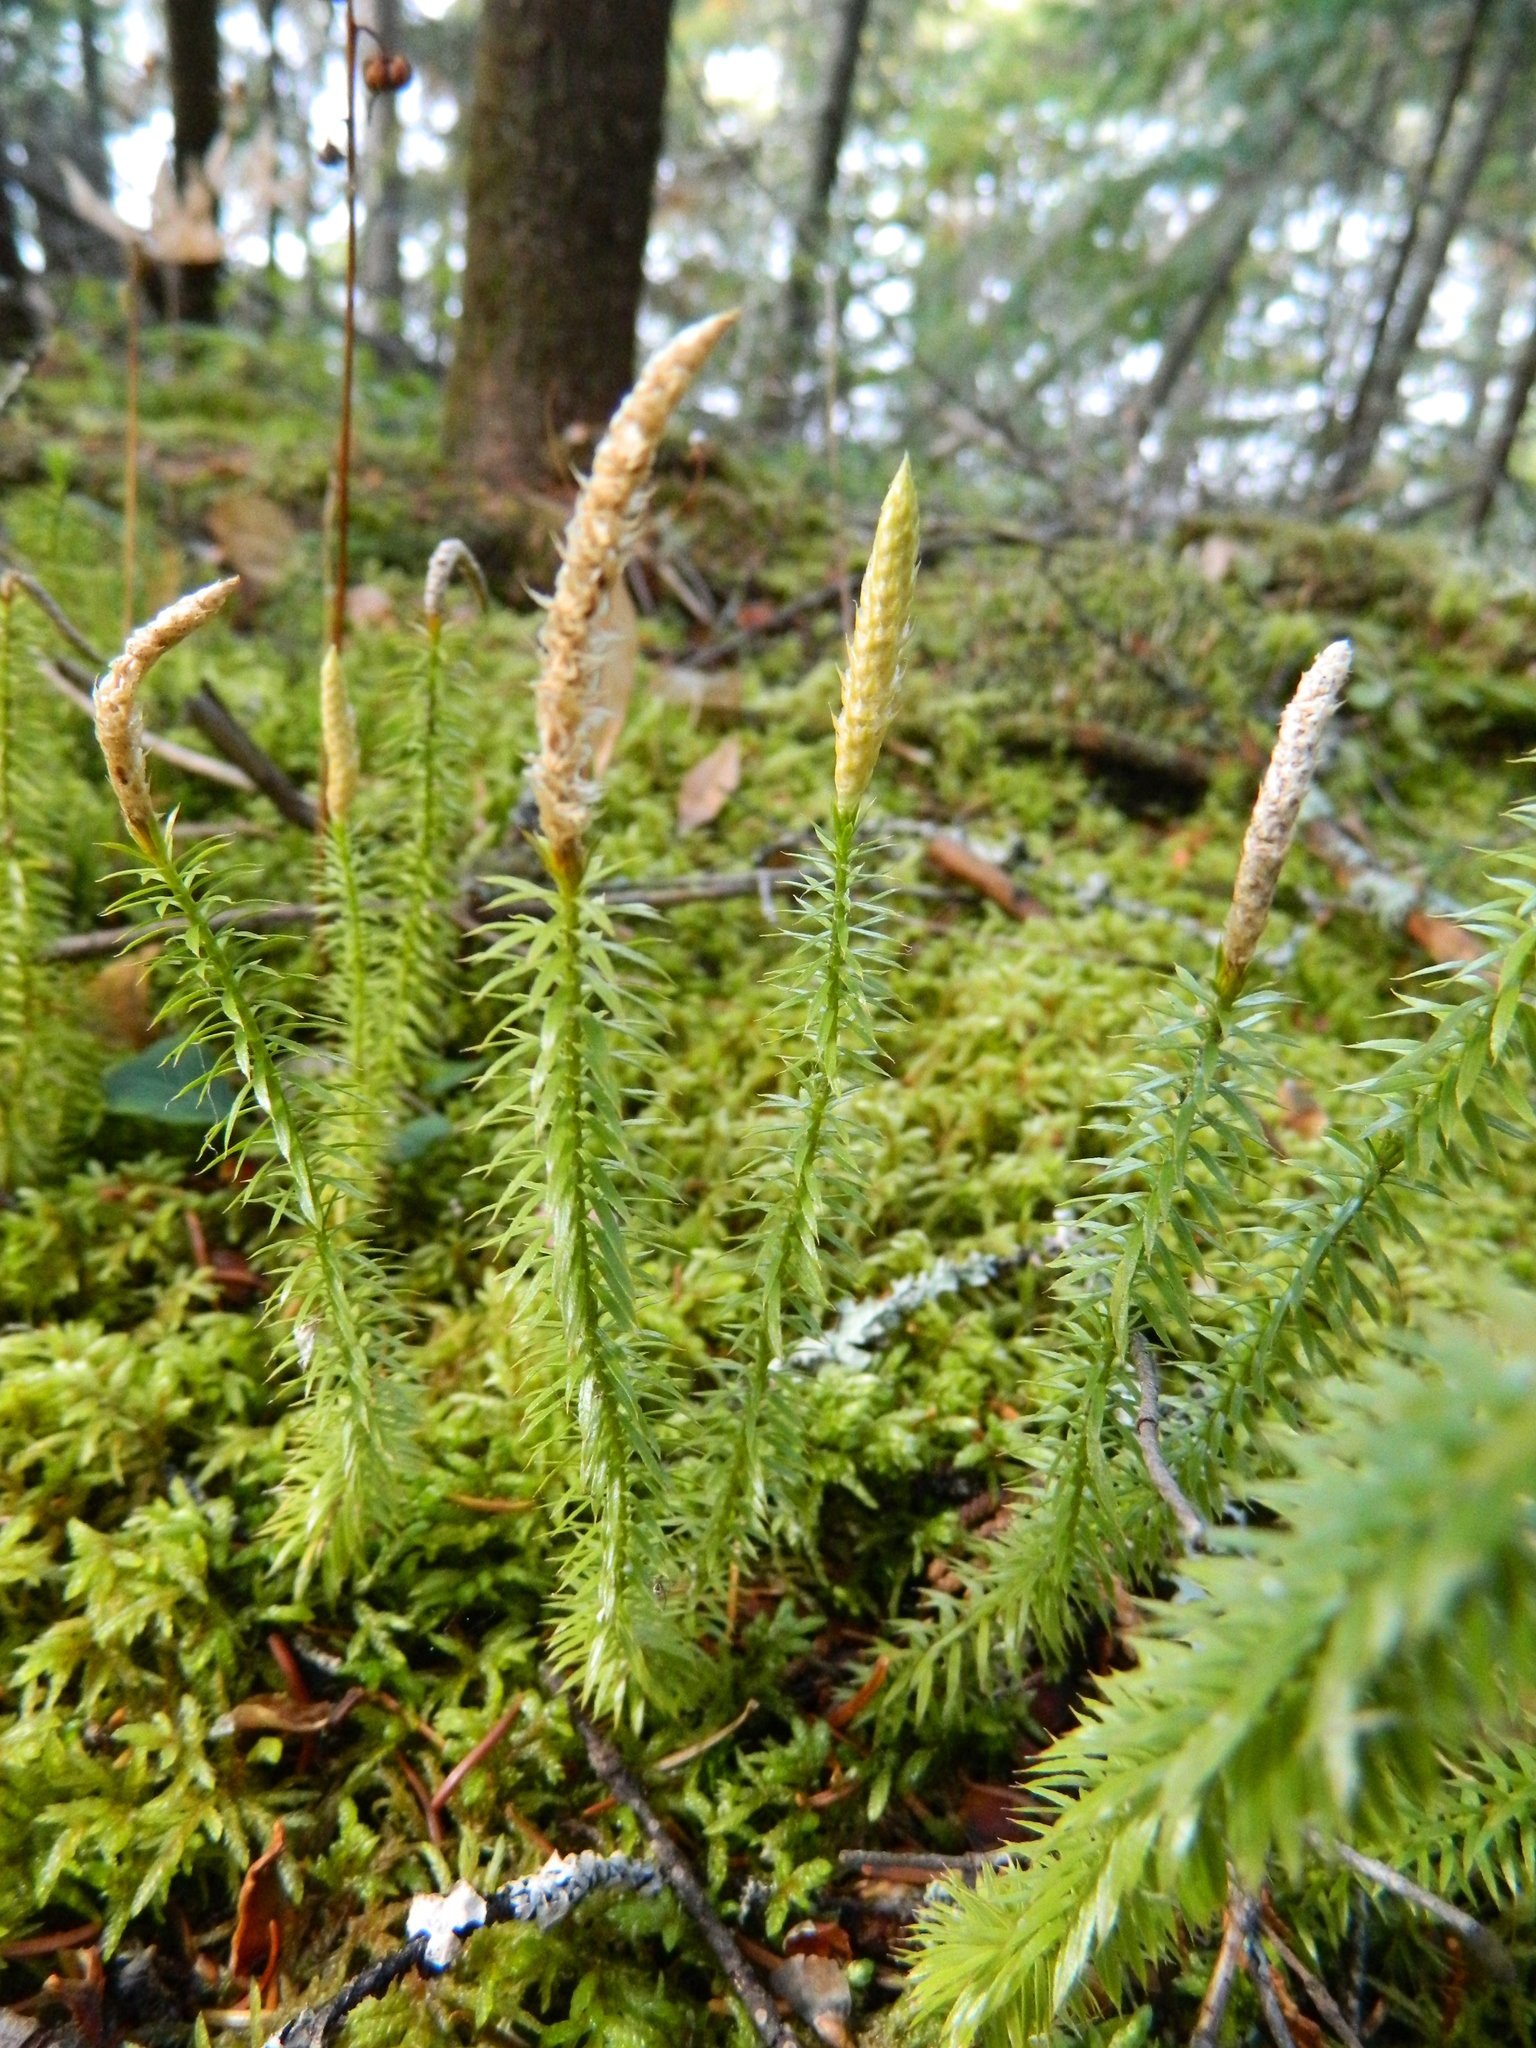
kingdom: Plantae
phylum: Tracheophyta
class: Lycopodiopsida
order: Lycopodiales
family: Lycopodiaceae
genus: Spinulum
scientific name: Spinulum annotinum
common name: Interrupted club-moss
